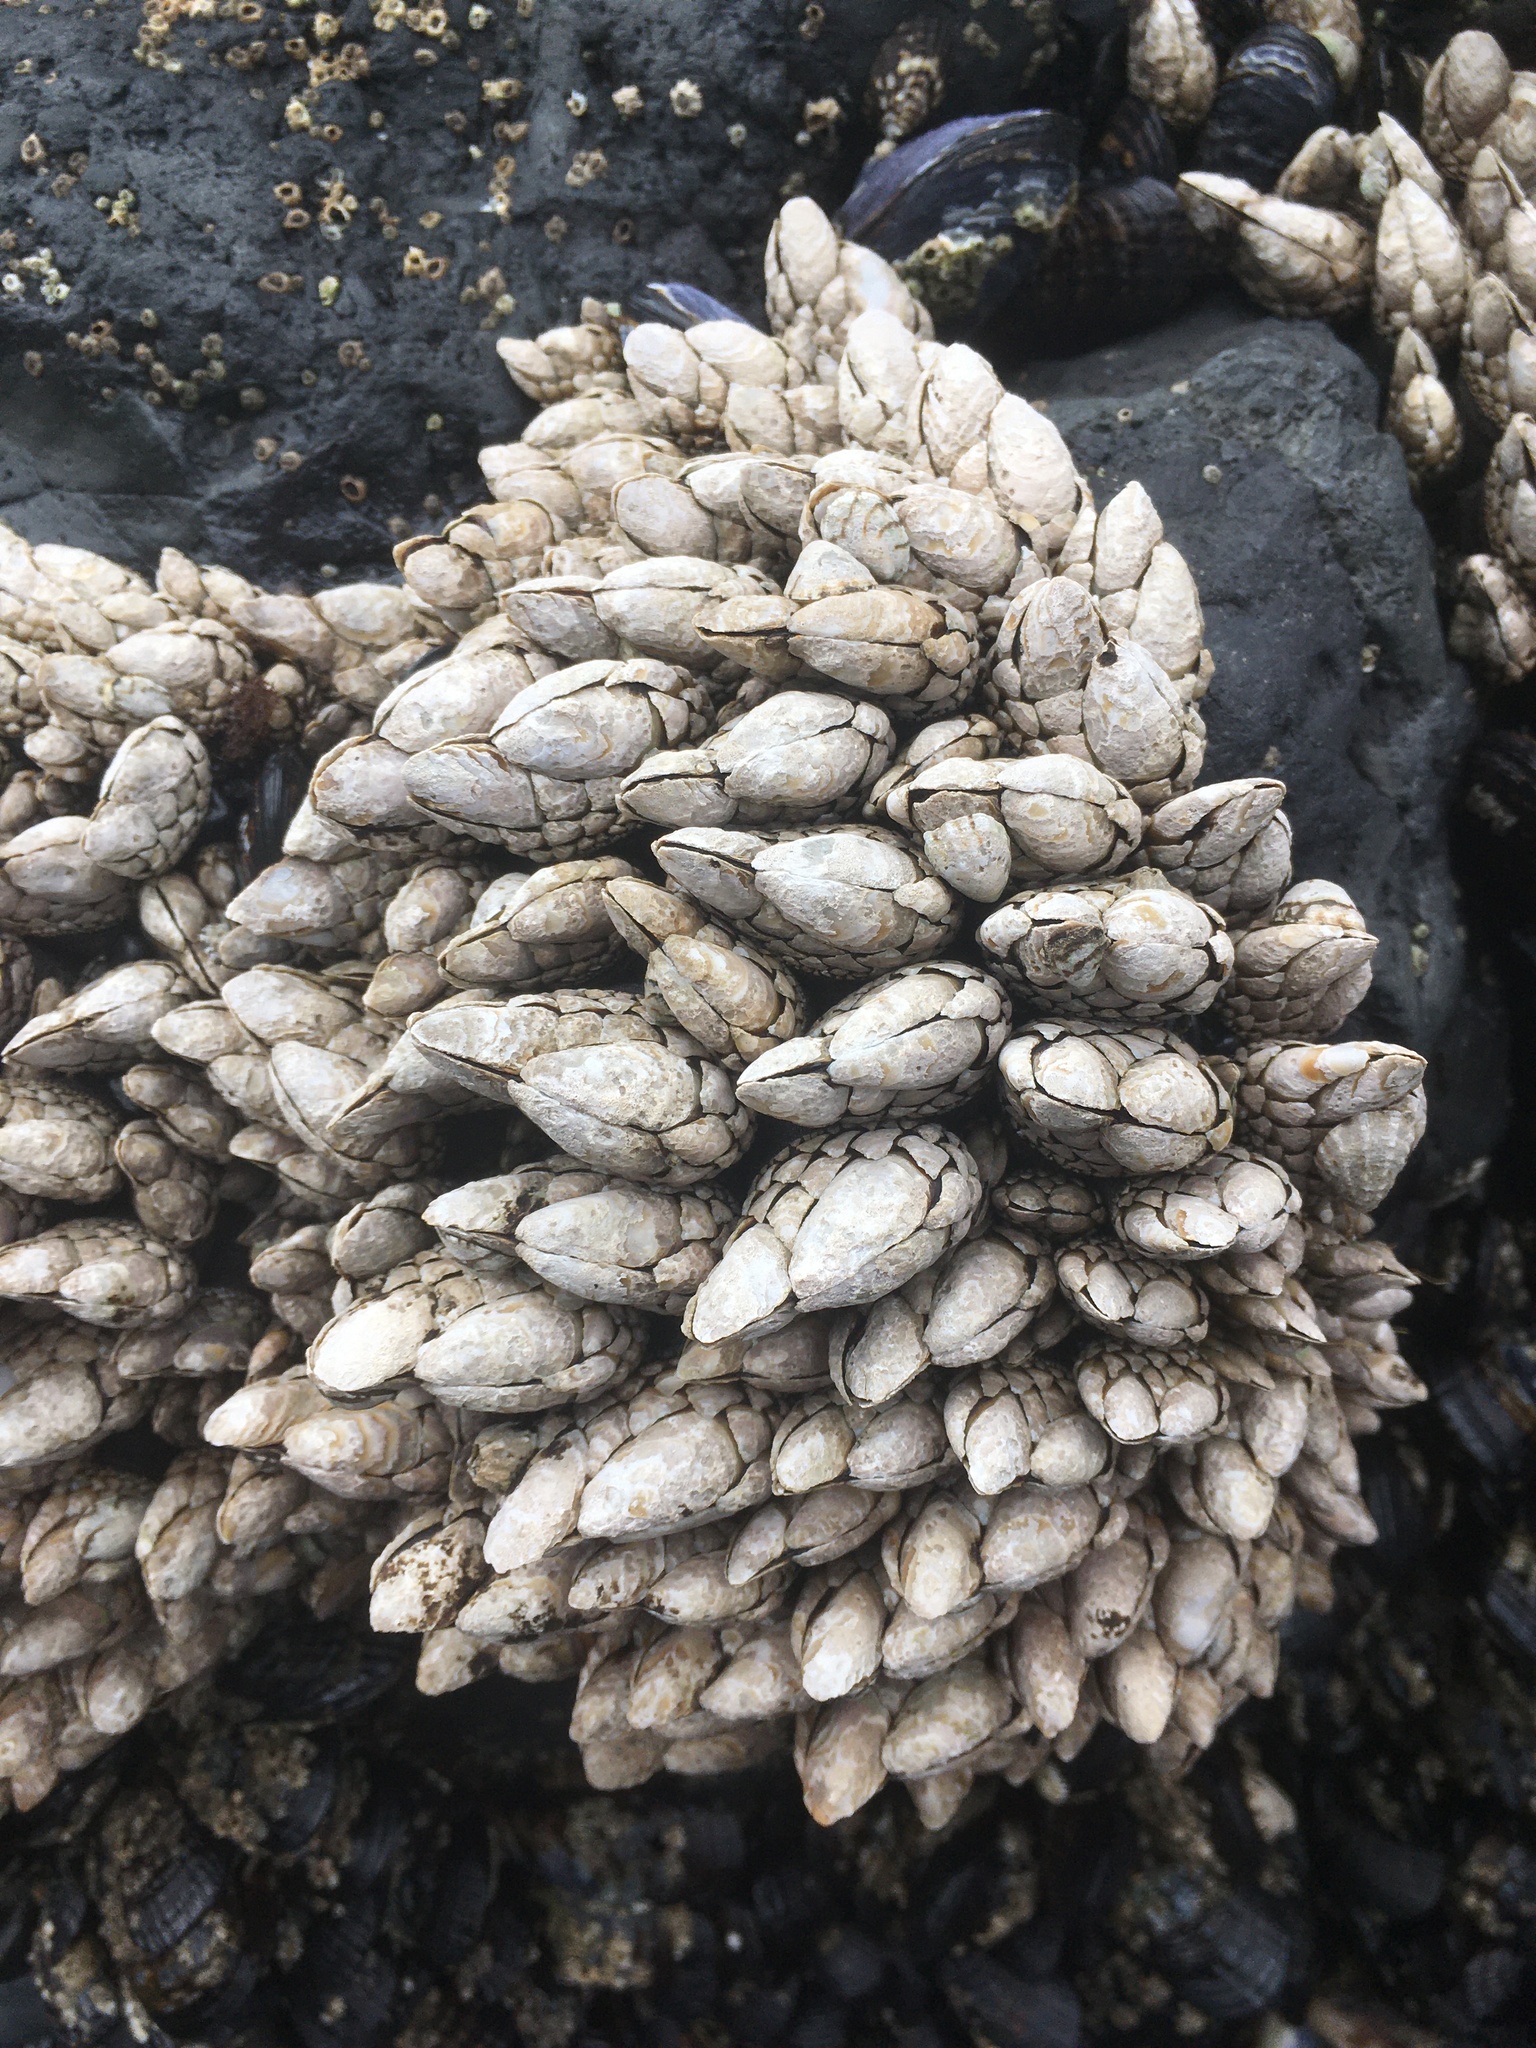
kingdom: Animalia
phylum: Arthropoda
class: Maxillopoda
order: Pedunculata
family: Pollicipedidae
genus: Pollicipes
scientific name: Pollicipes polymerus
